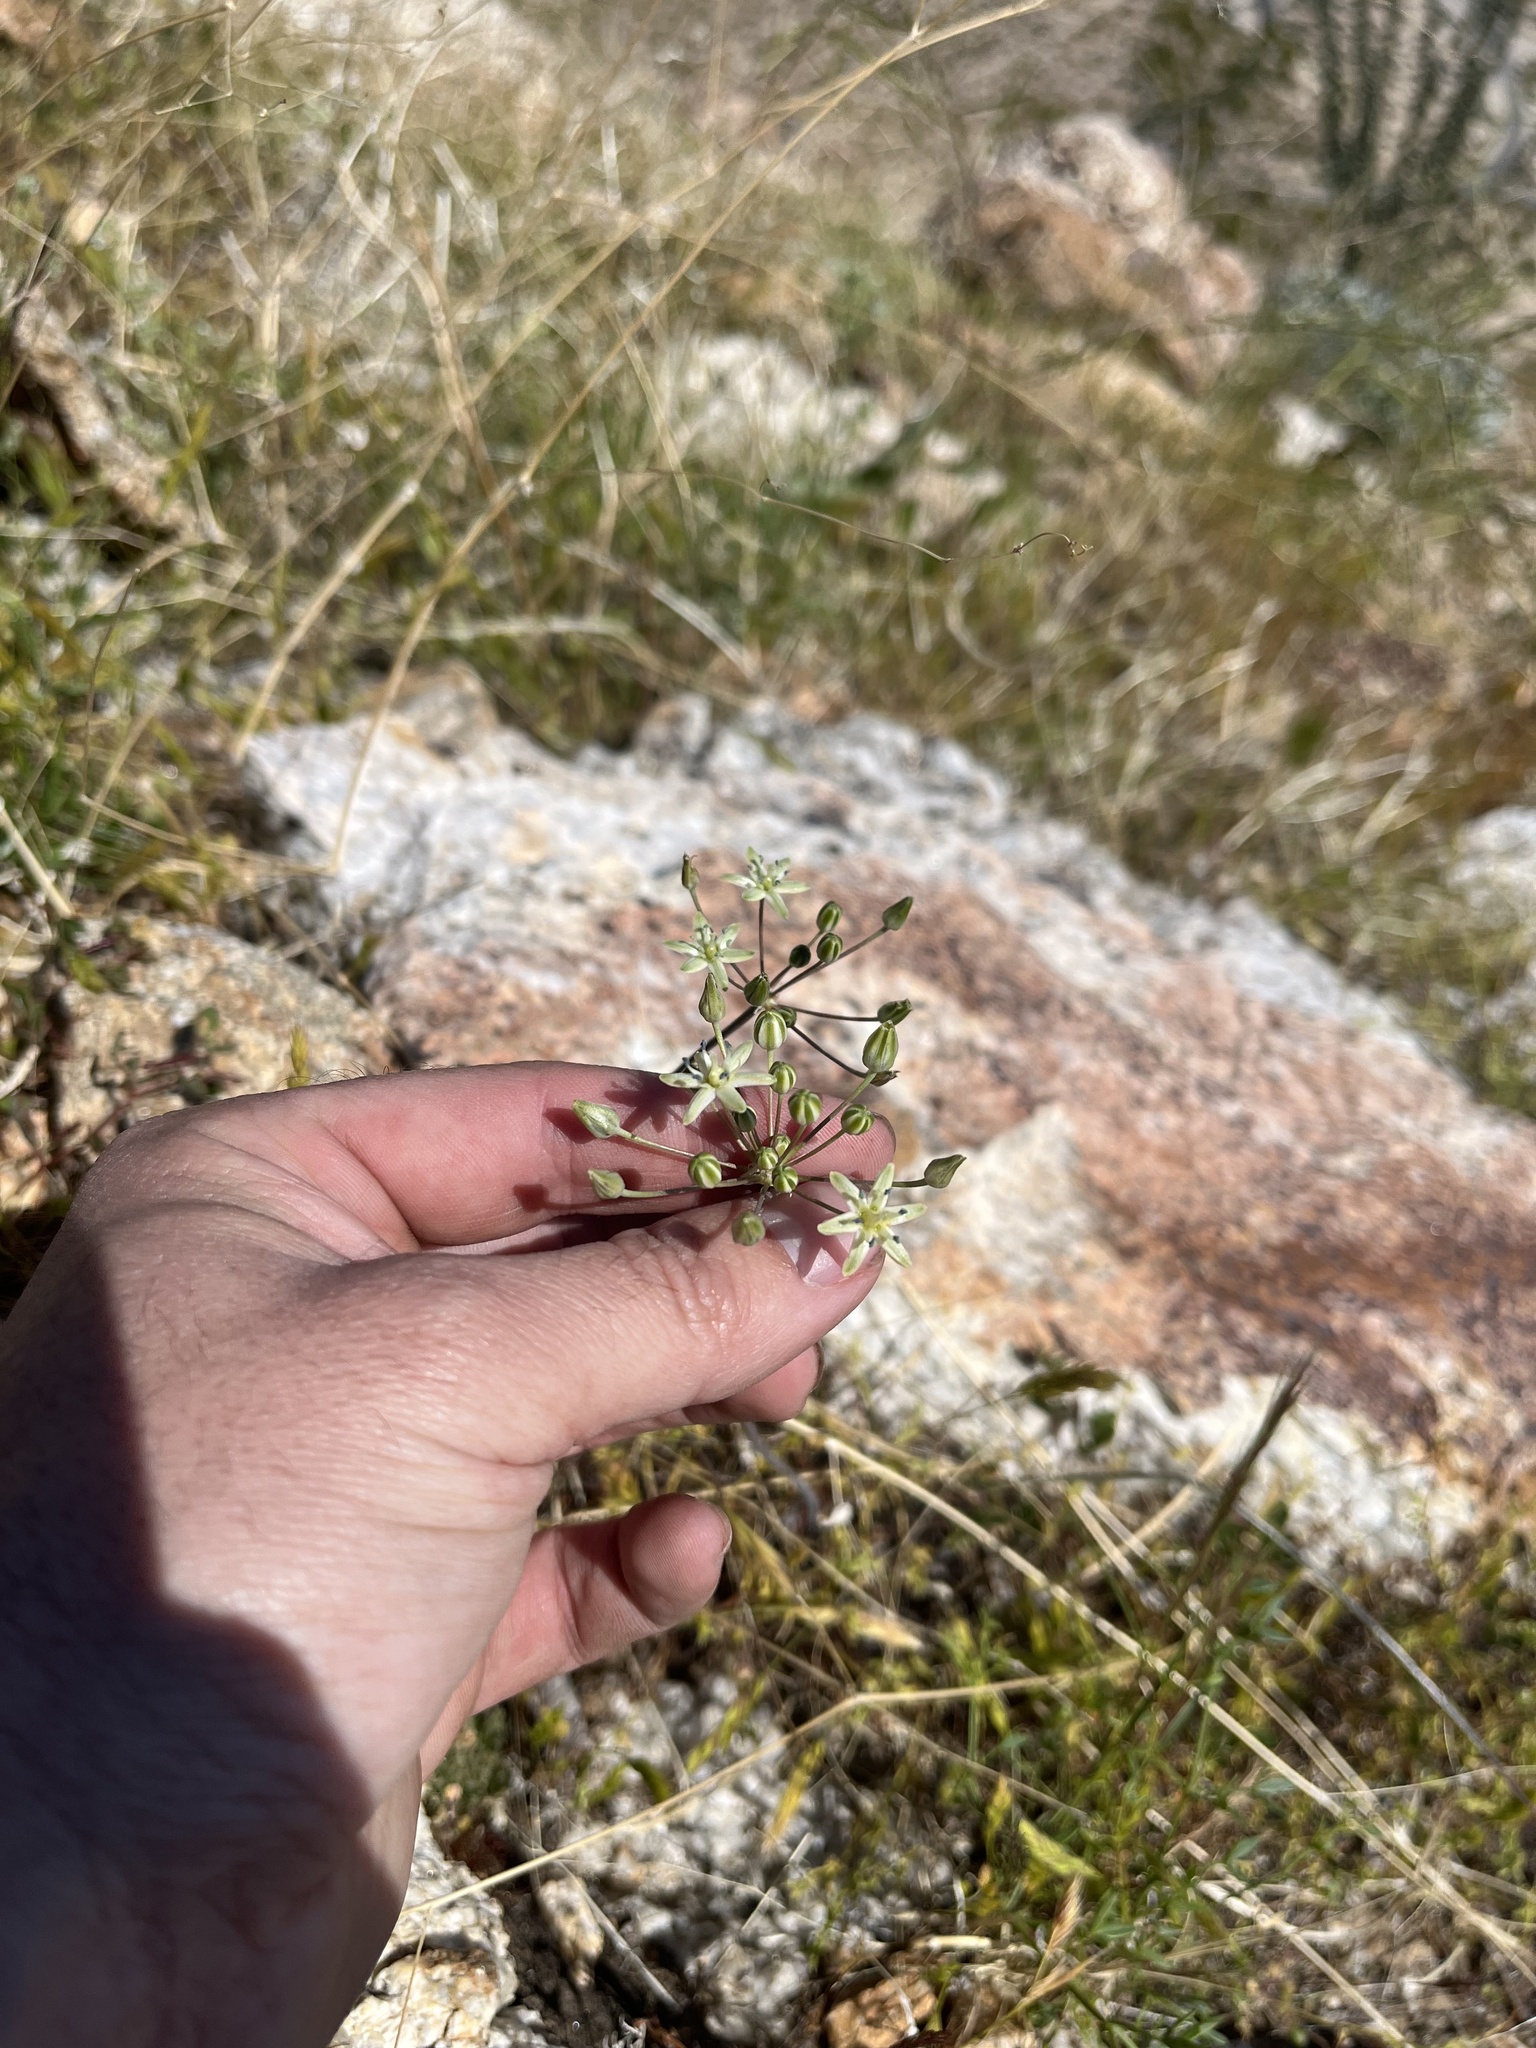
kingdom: Plantae
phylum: Tracheophyta
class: Liliopsida
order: Asparagales
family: Asparagaceae
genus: Muilla
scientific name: Muilla maritima
